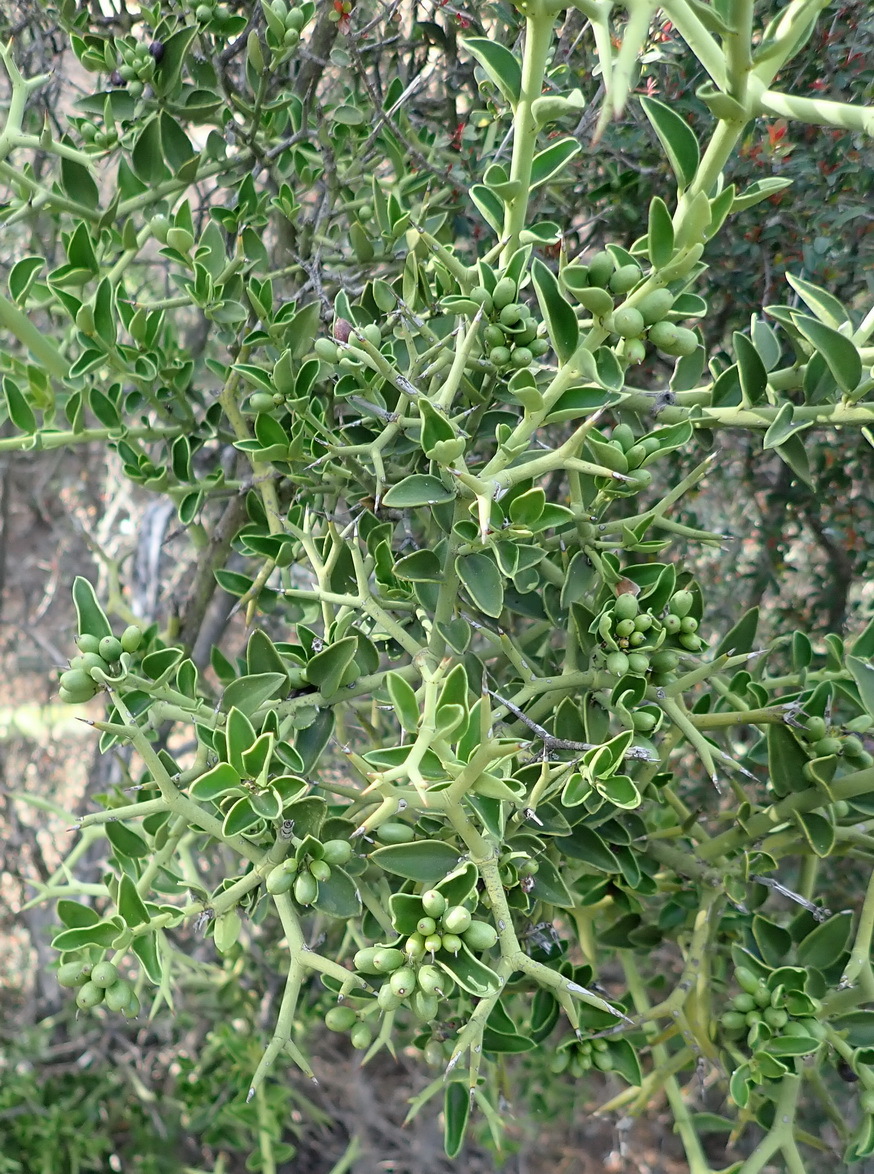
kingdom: Plantae
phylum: Tracheophyta
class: Magnoliopsida
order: Gentianales
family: Apocynaceae
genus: Carissa
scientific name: Carissa haematocarpa
